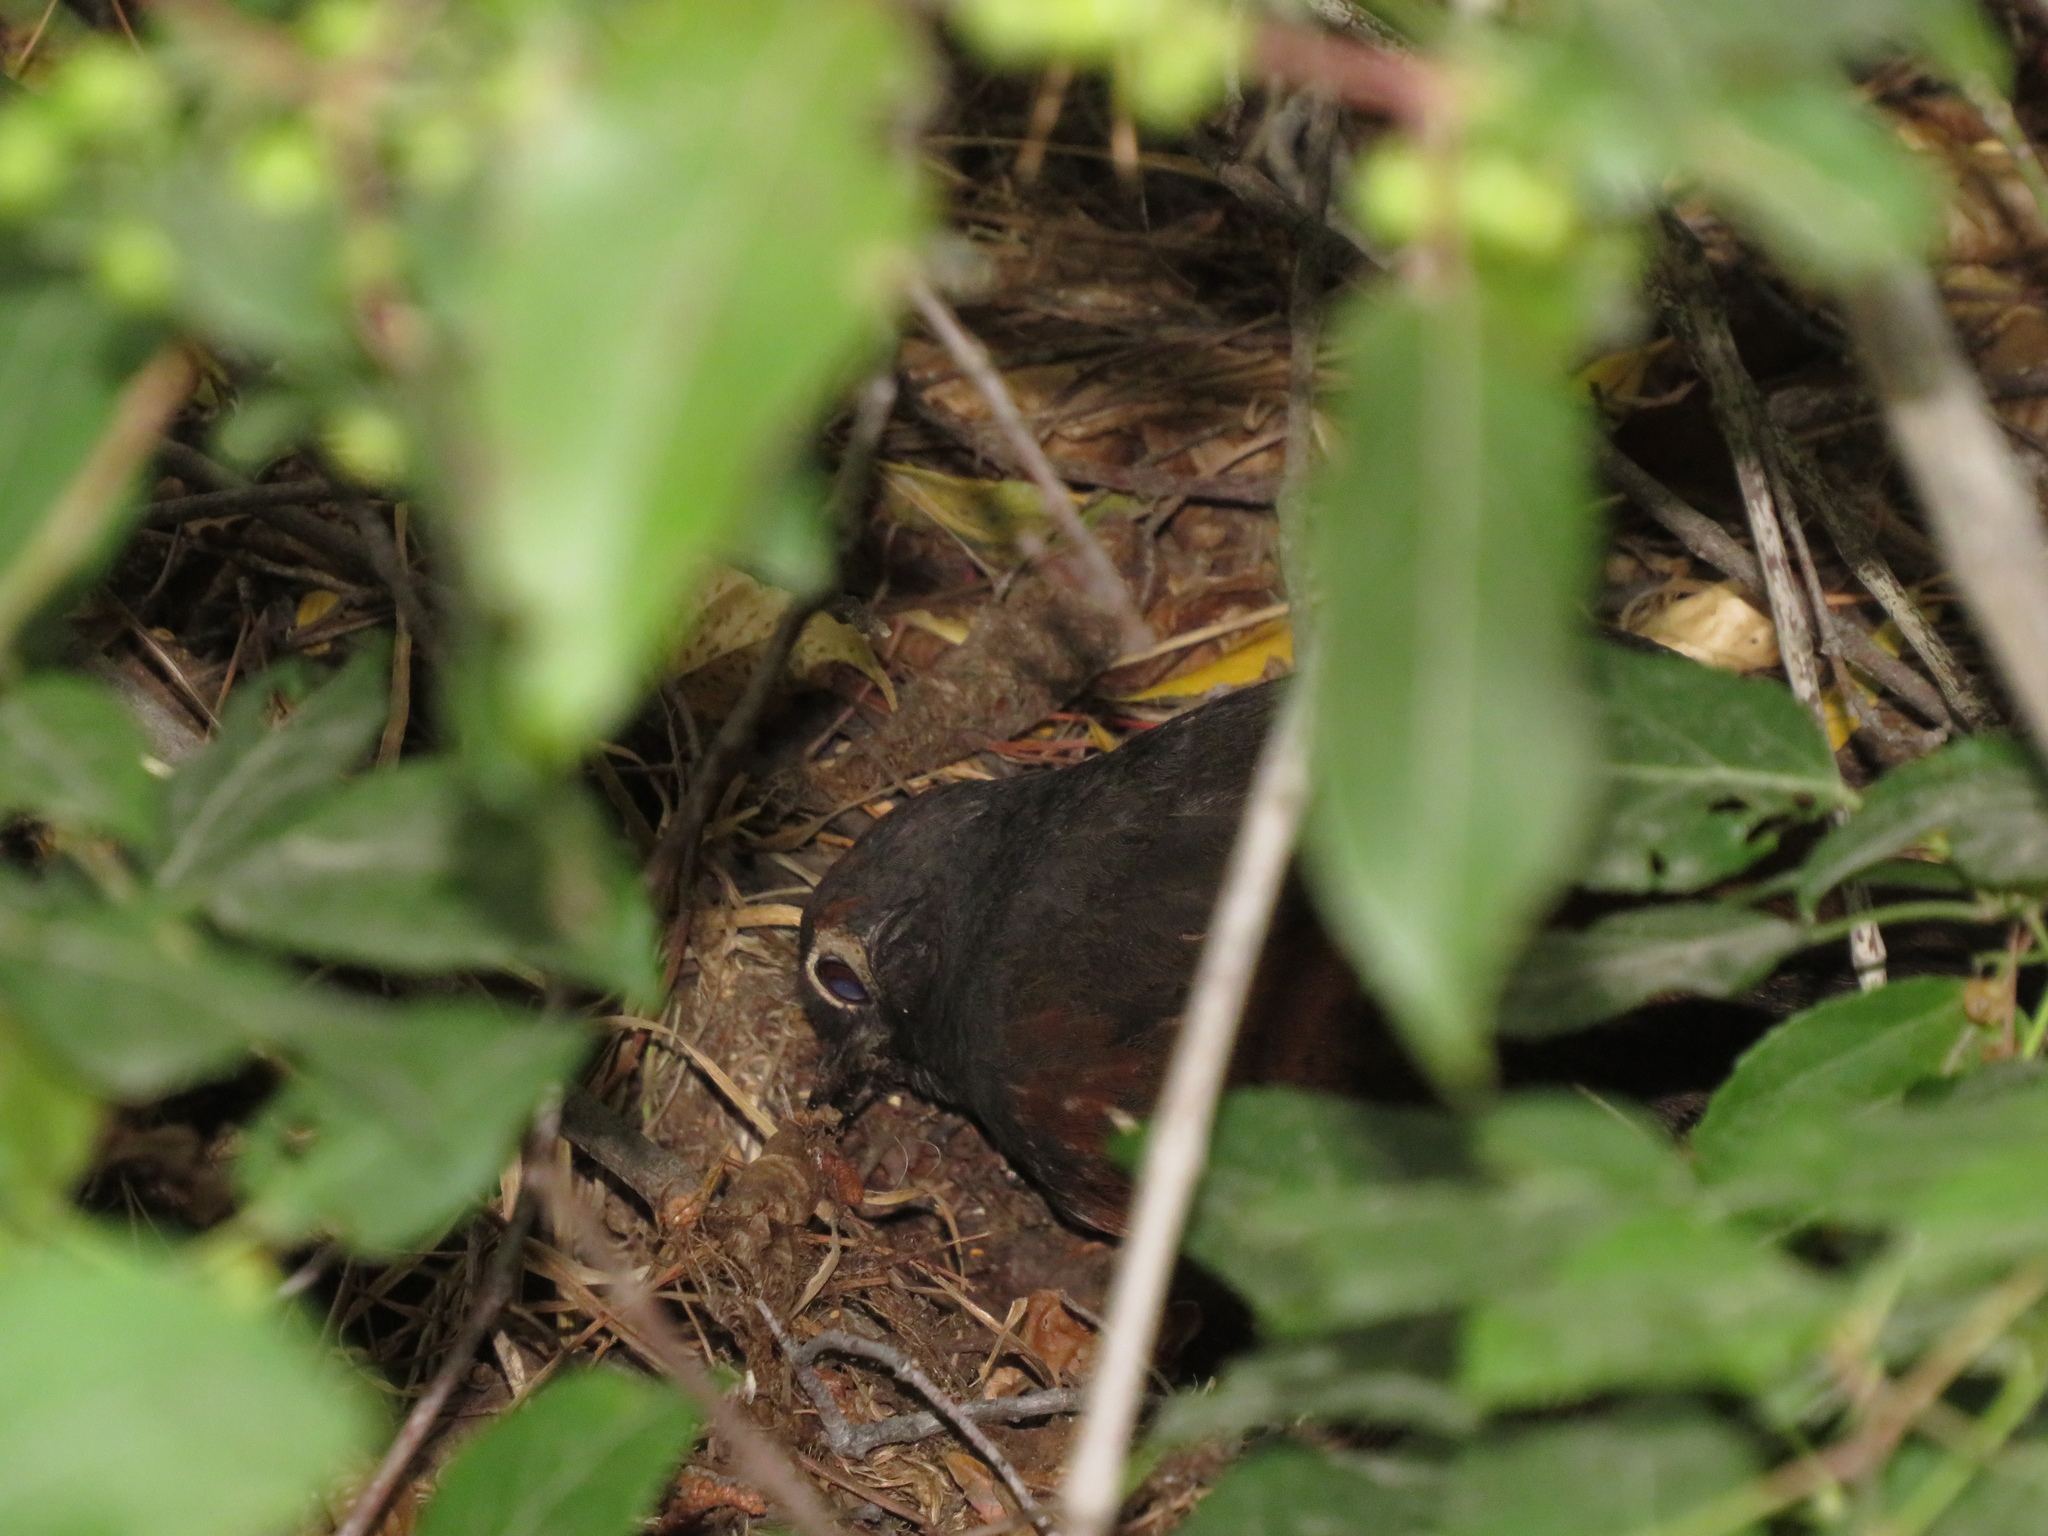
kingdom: Animalia
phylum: Chordata
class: Aves
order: Passeriformes
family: Rhinocryptidae
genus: Pteroptochos
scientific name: Pteroptochos tarnii
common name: Black-throated huet-huet
